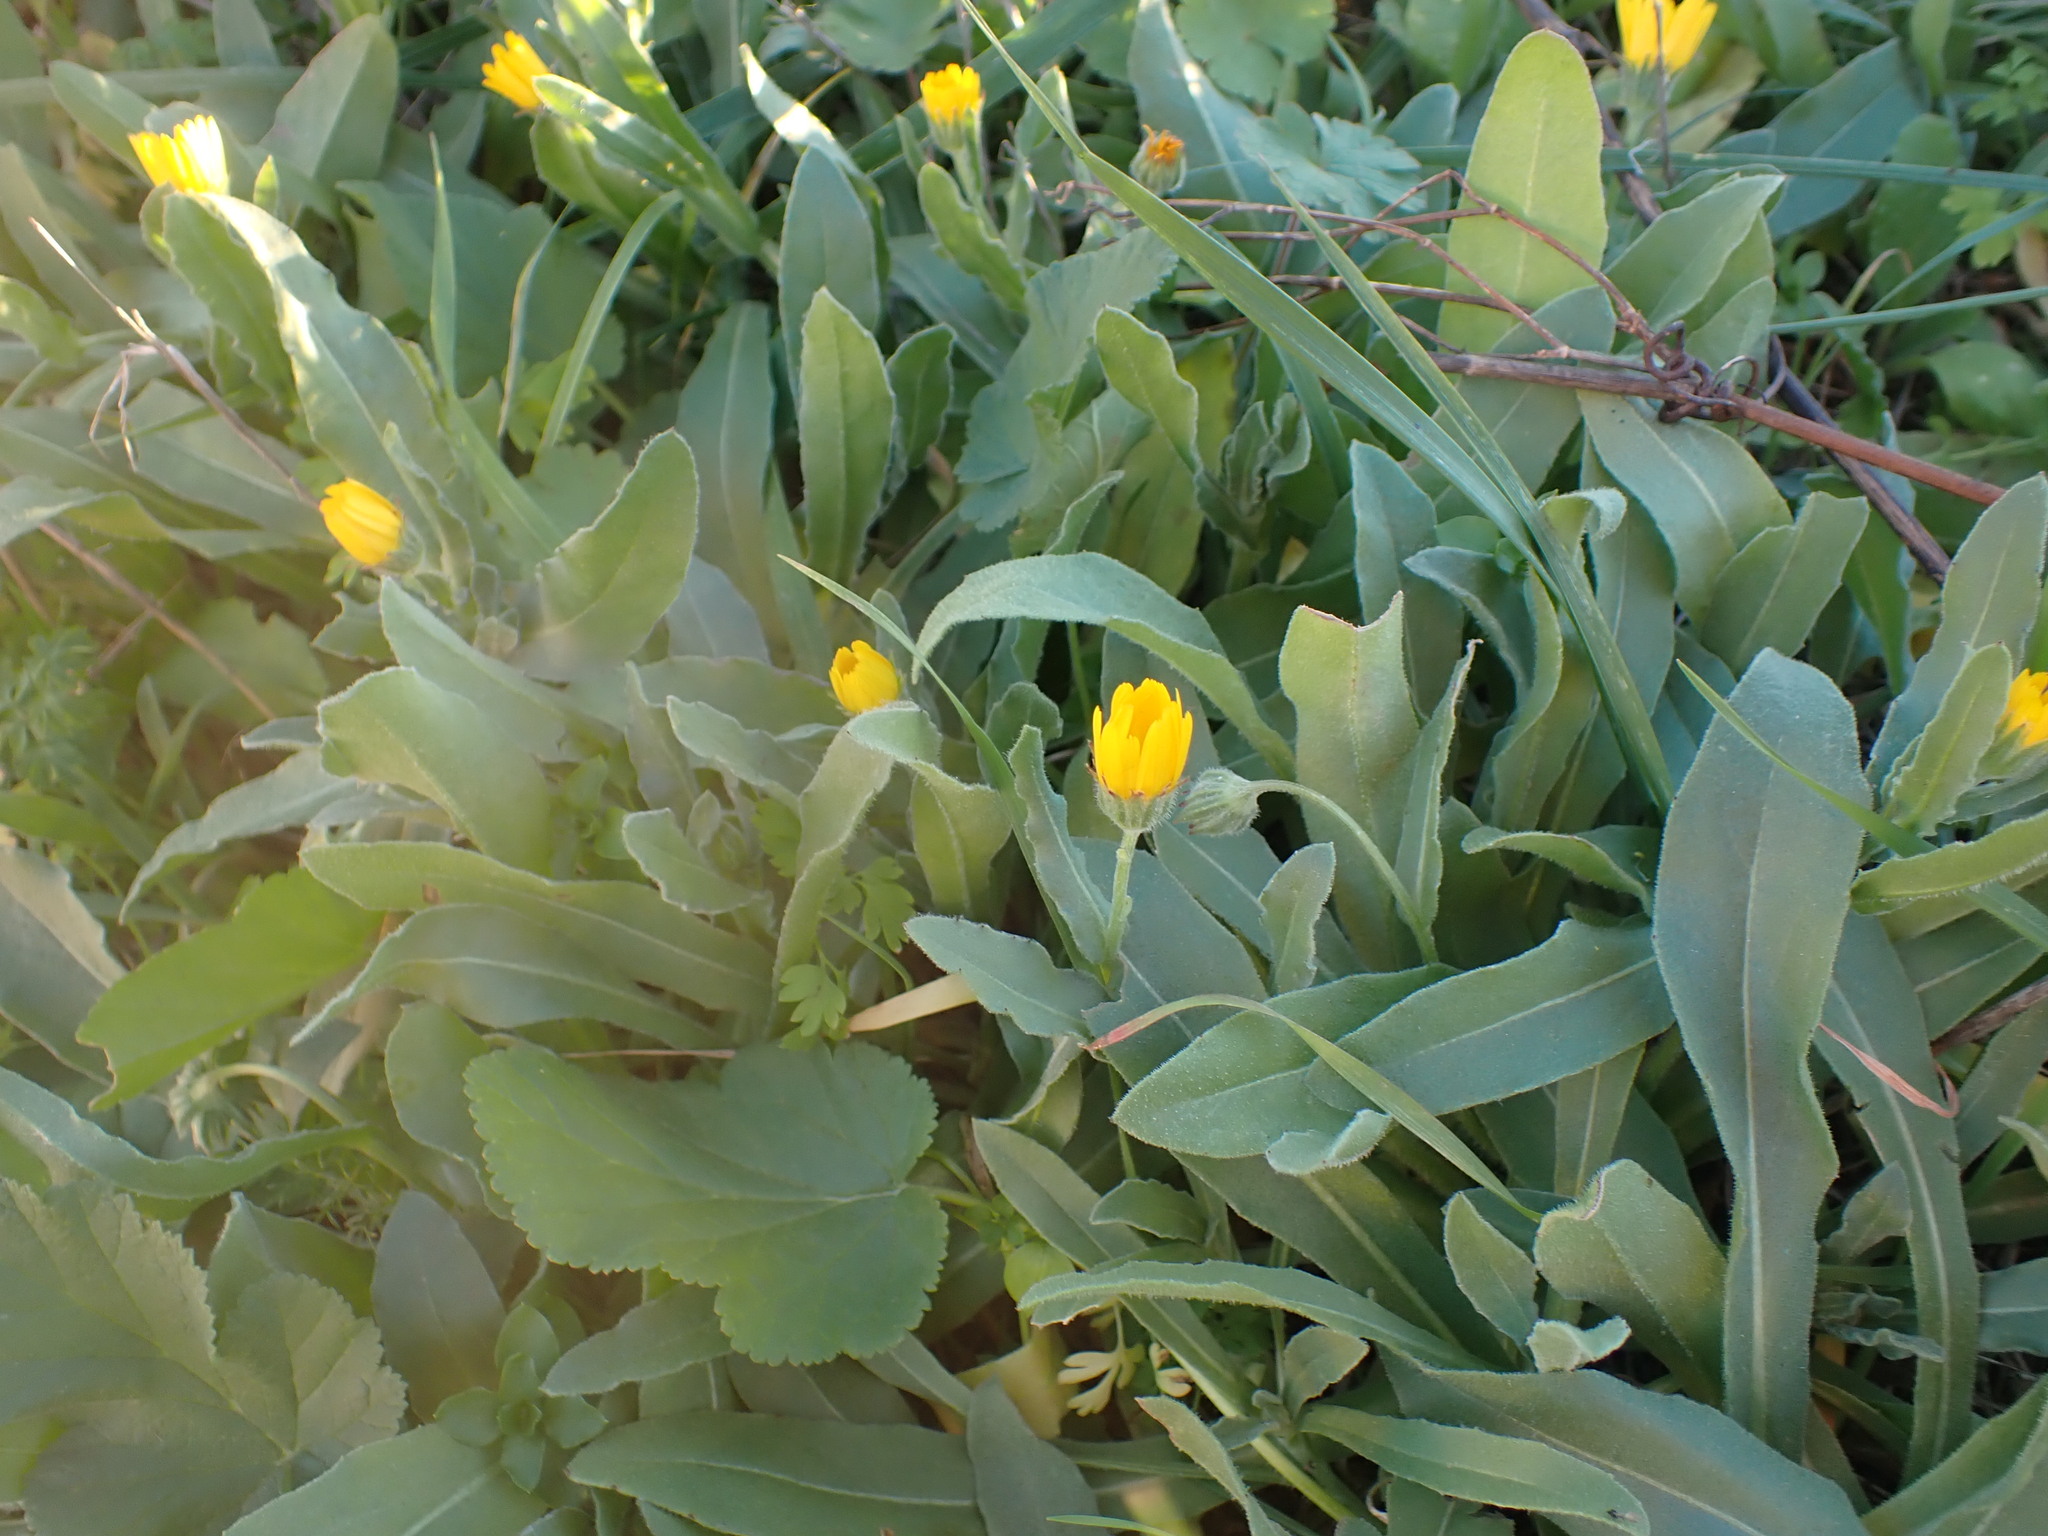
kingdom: Plantae
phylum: Tracheophyta
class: Magnoliopsida
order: Asterales
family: Asteraceae
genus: Calendula
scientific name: Calendula arvensis
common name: Field marigold
